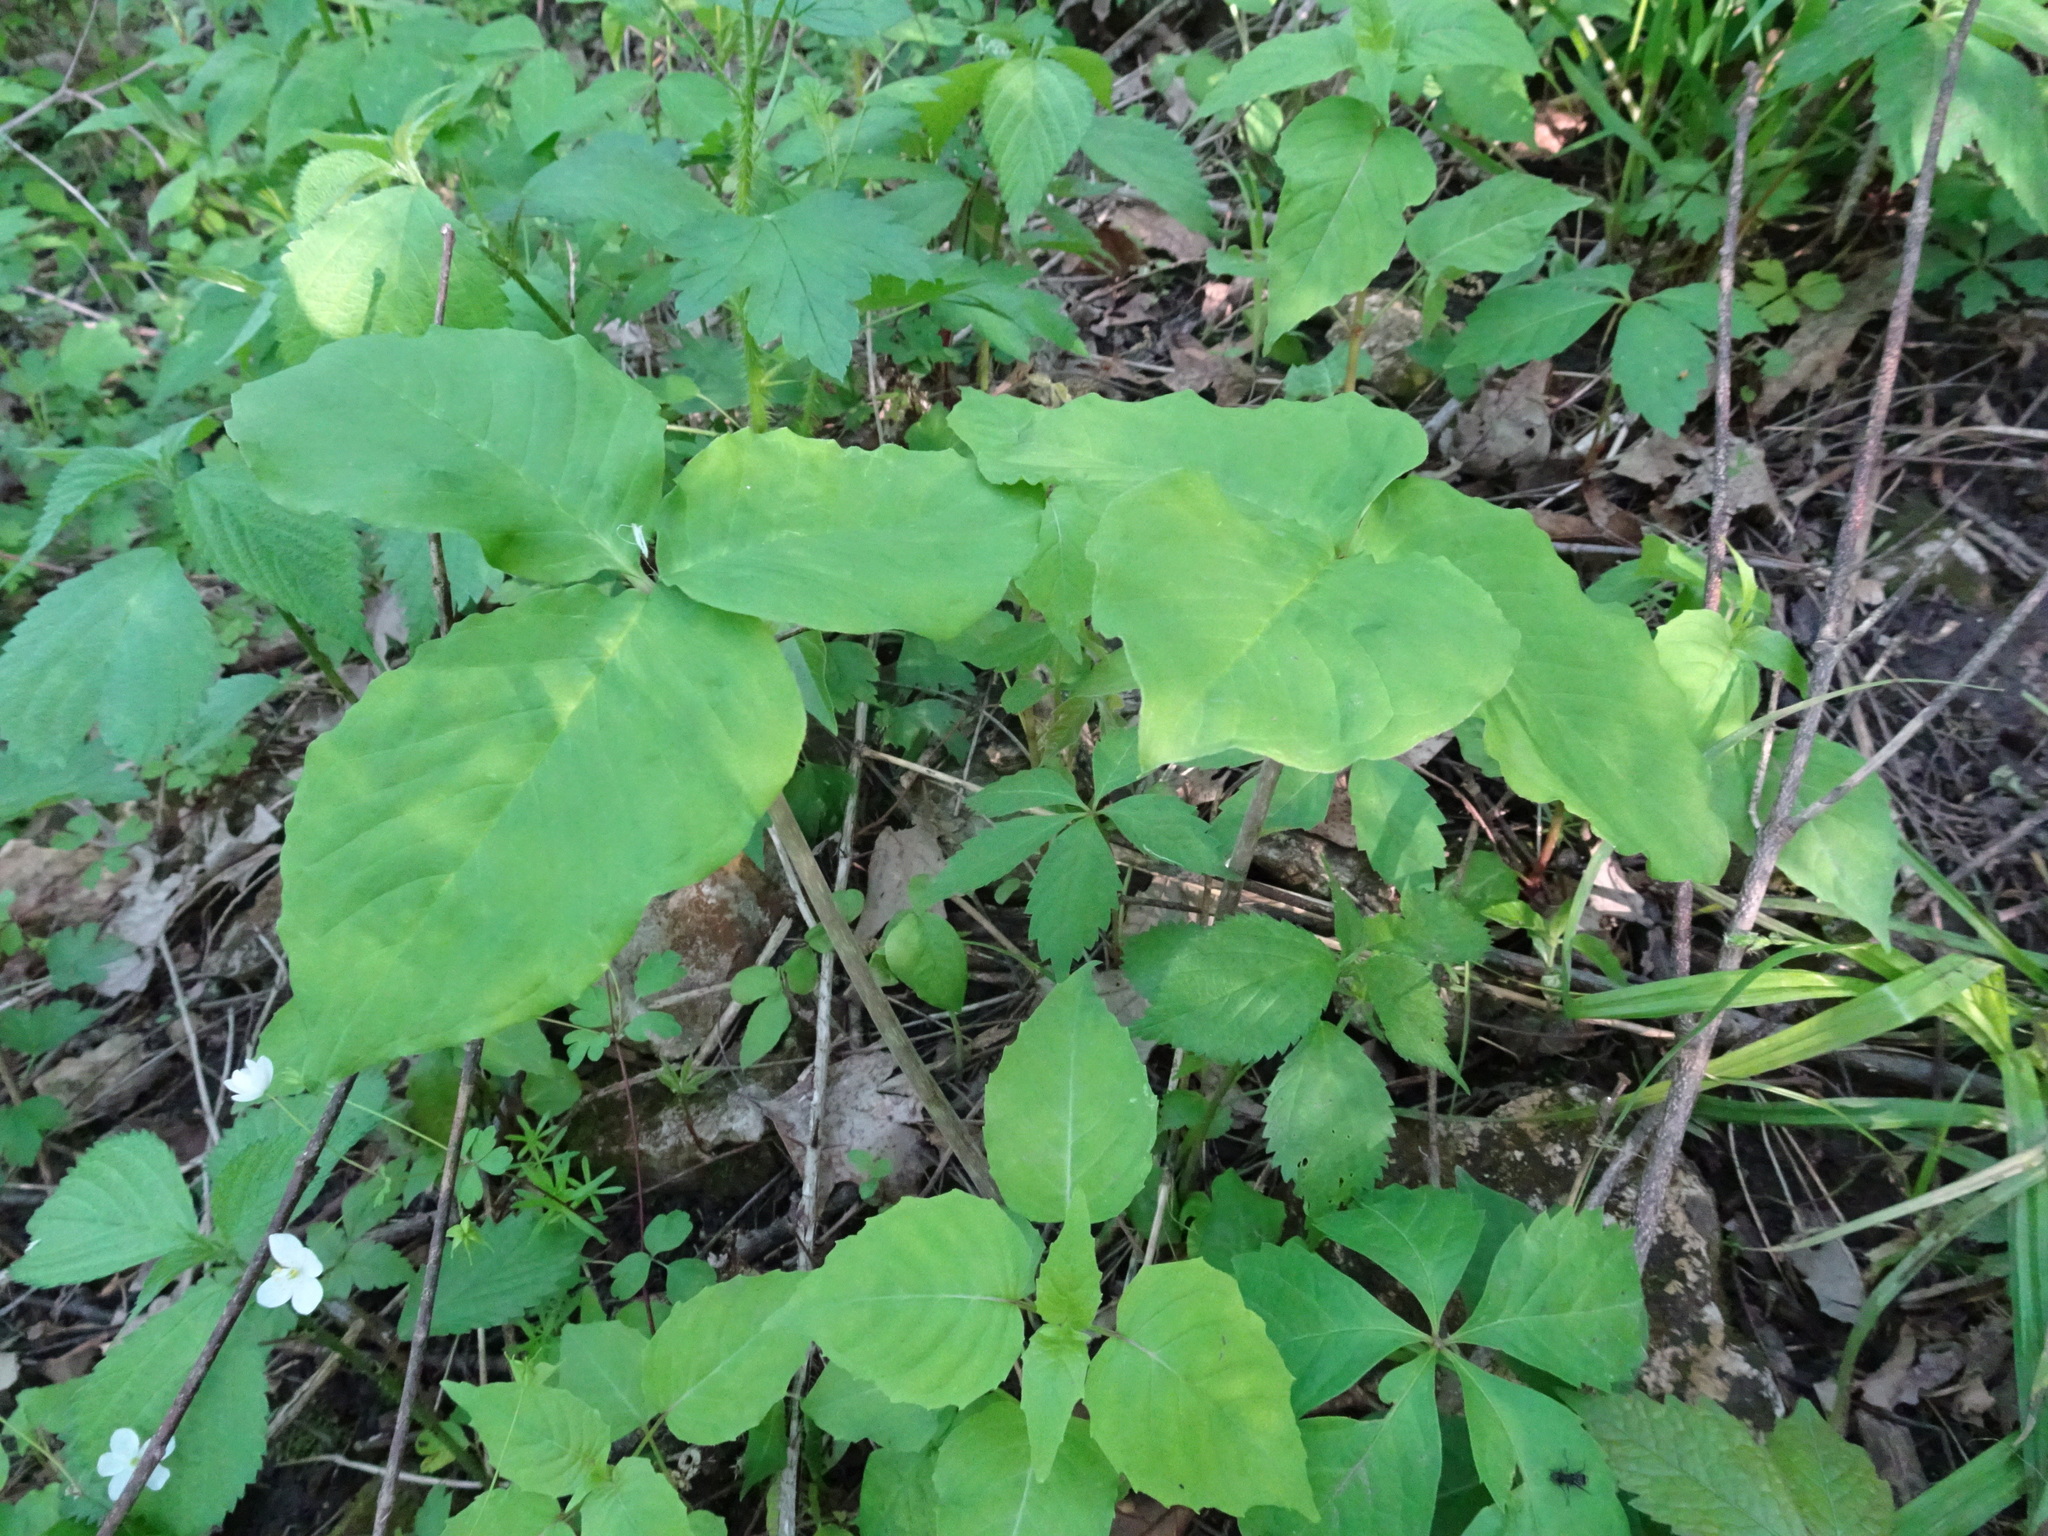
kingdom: Plantae
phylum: Tracheophyta
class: Liliopsida
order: Alismatales
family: Araceae
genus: Arisaema
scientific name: Arisaema triphyllum
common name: Jack-in-the-pulpit
